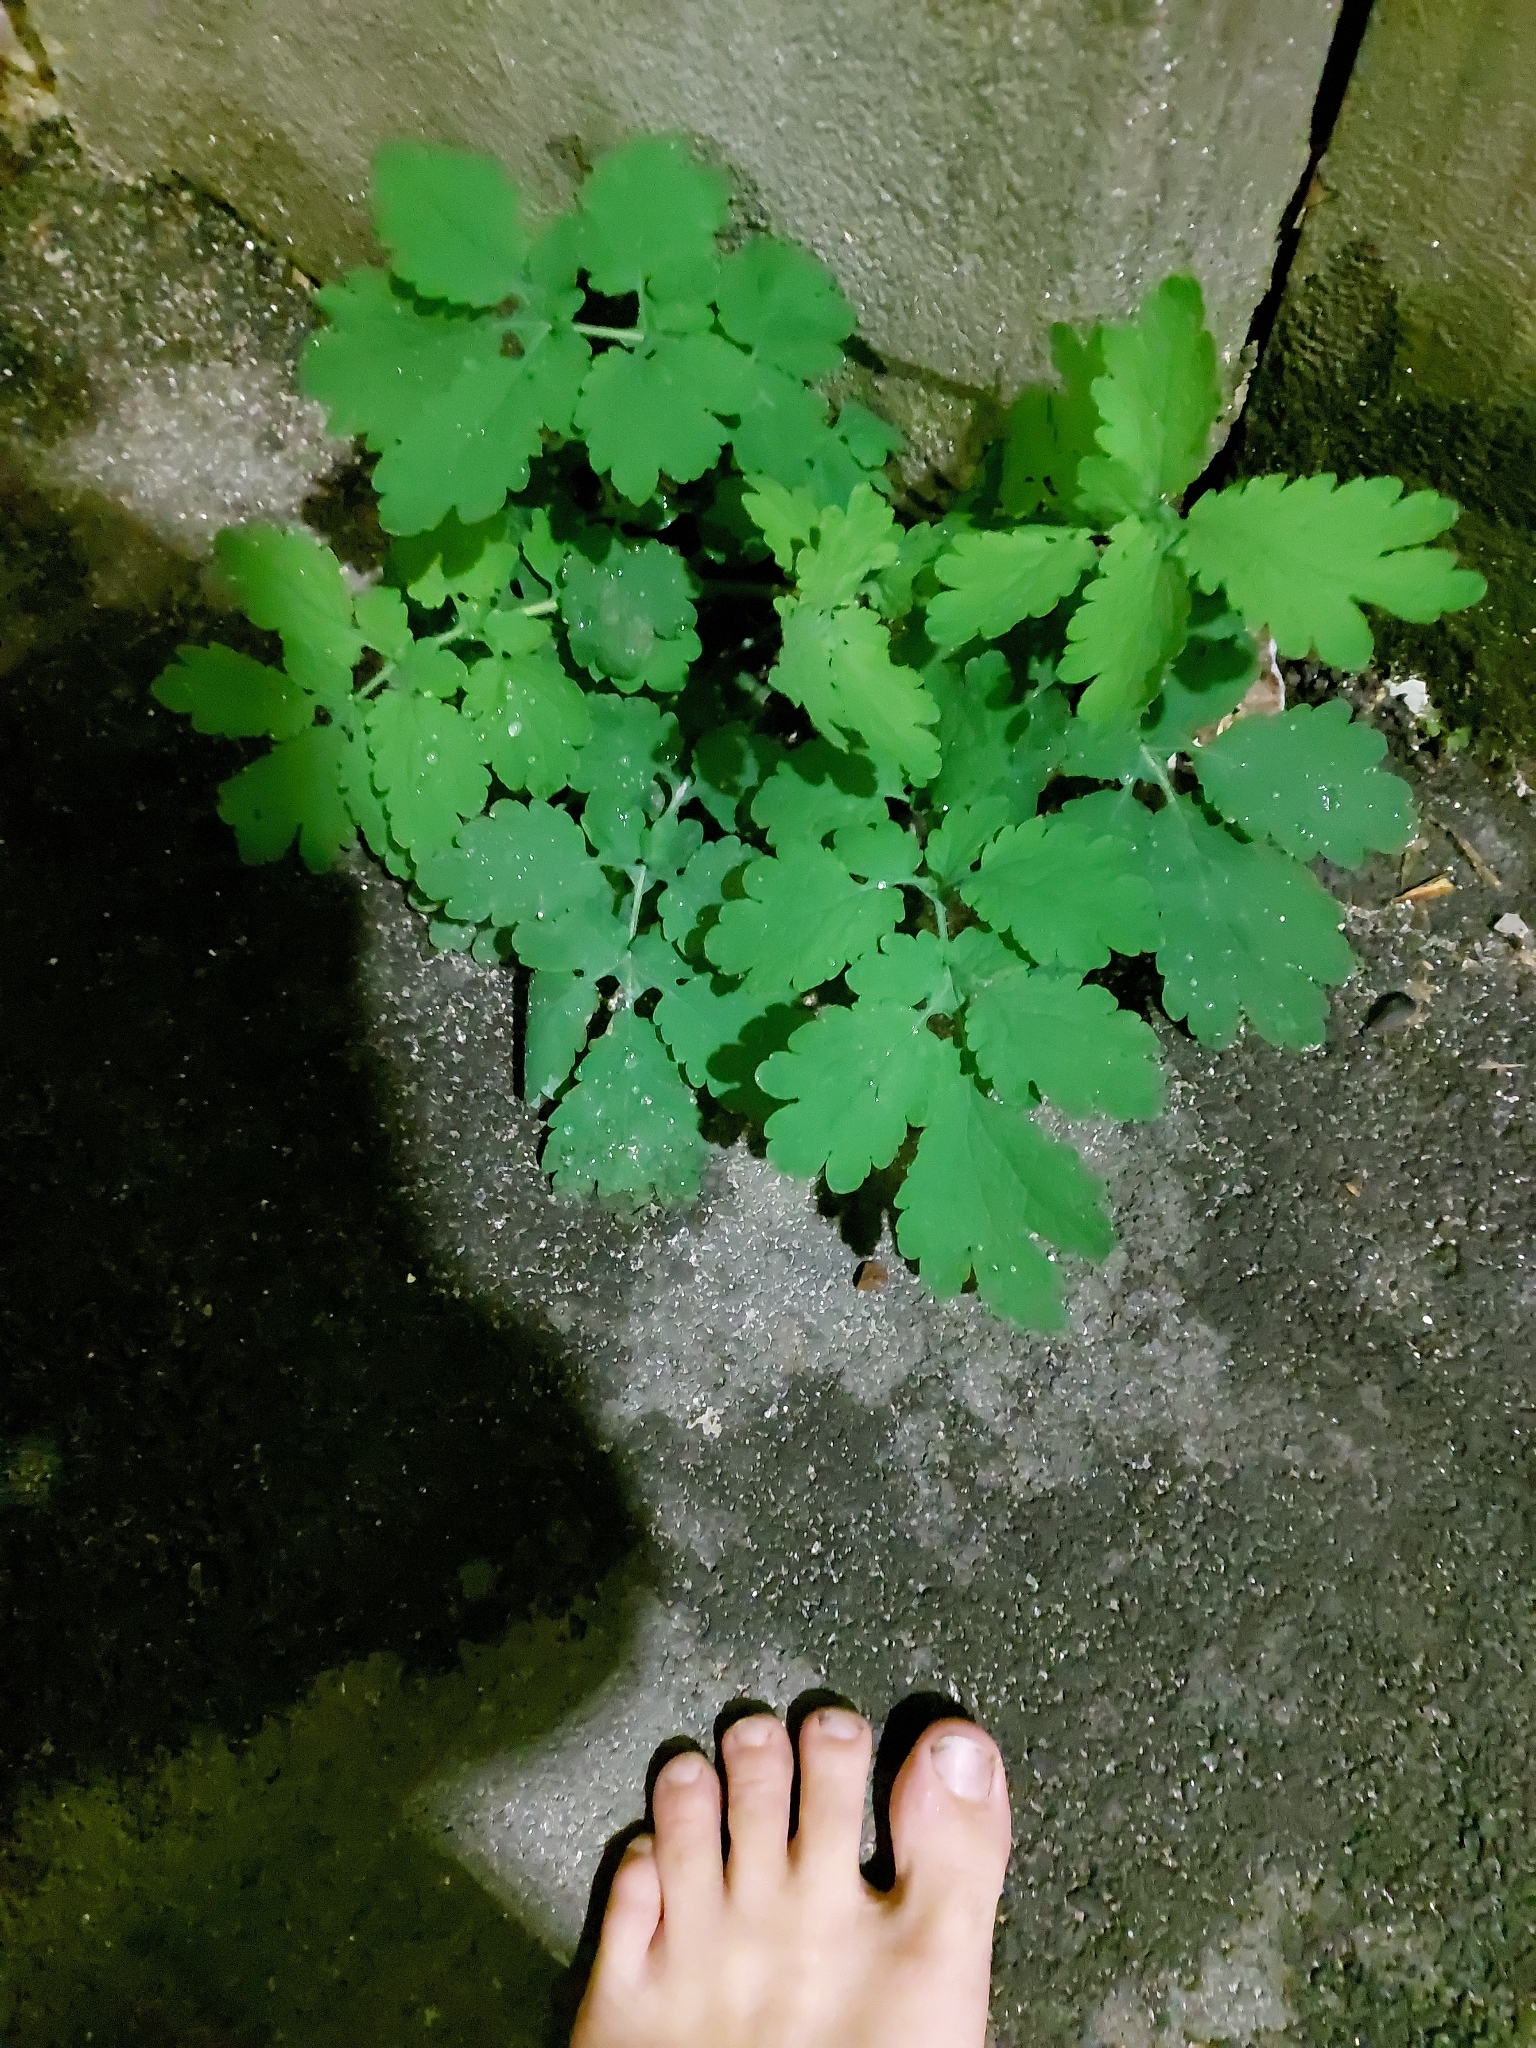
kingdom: Plantae
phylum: Tracheophyta
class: Magnoliopsida
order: Ranunculales
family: Papaveraceae
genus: Chelidonium
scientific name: Chelidonium majus
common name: Greater celandine
